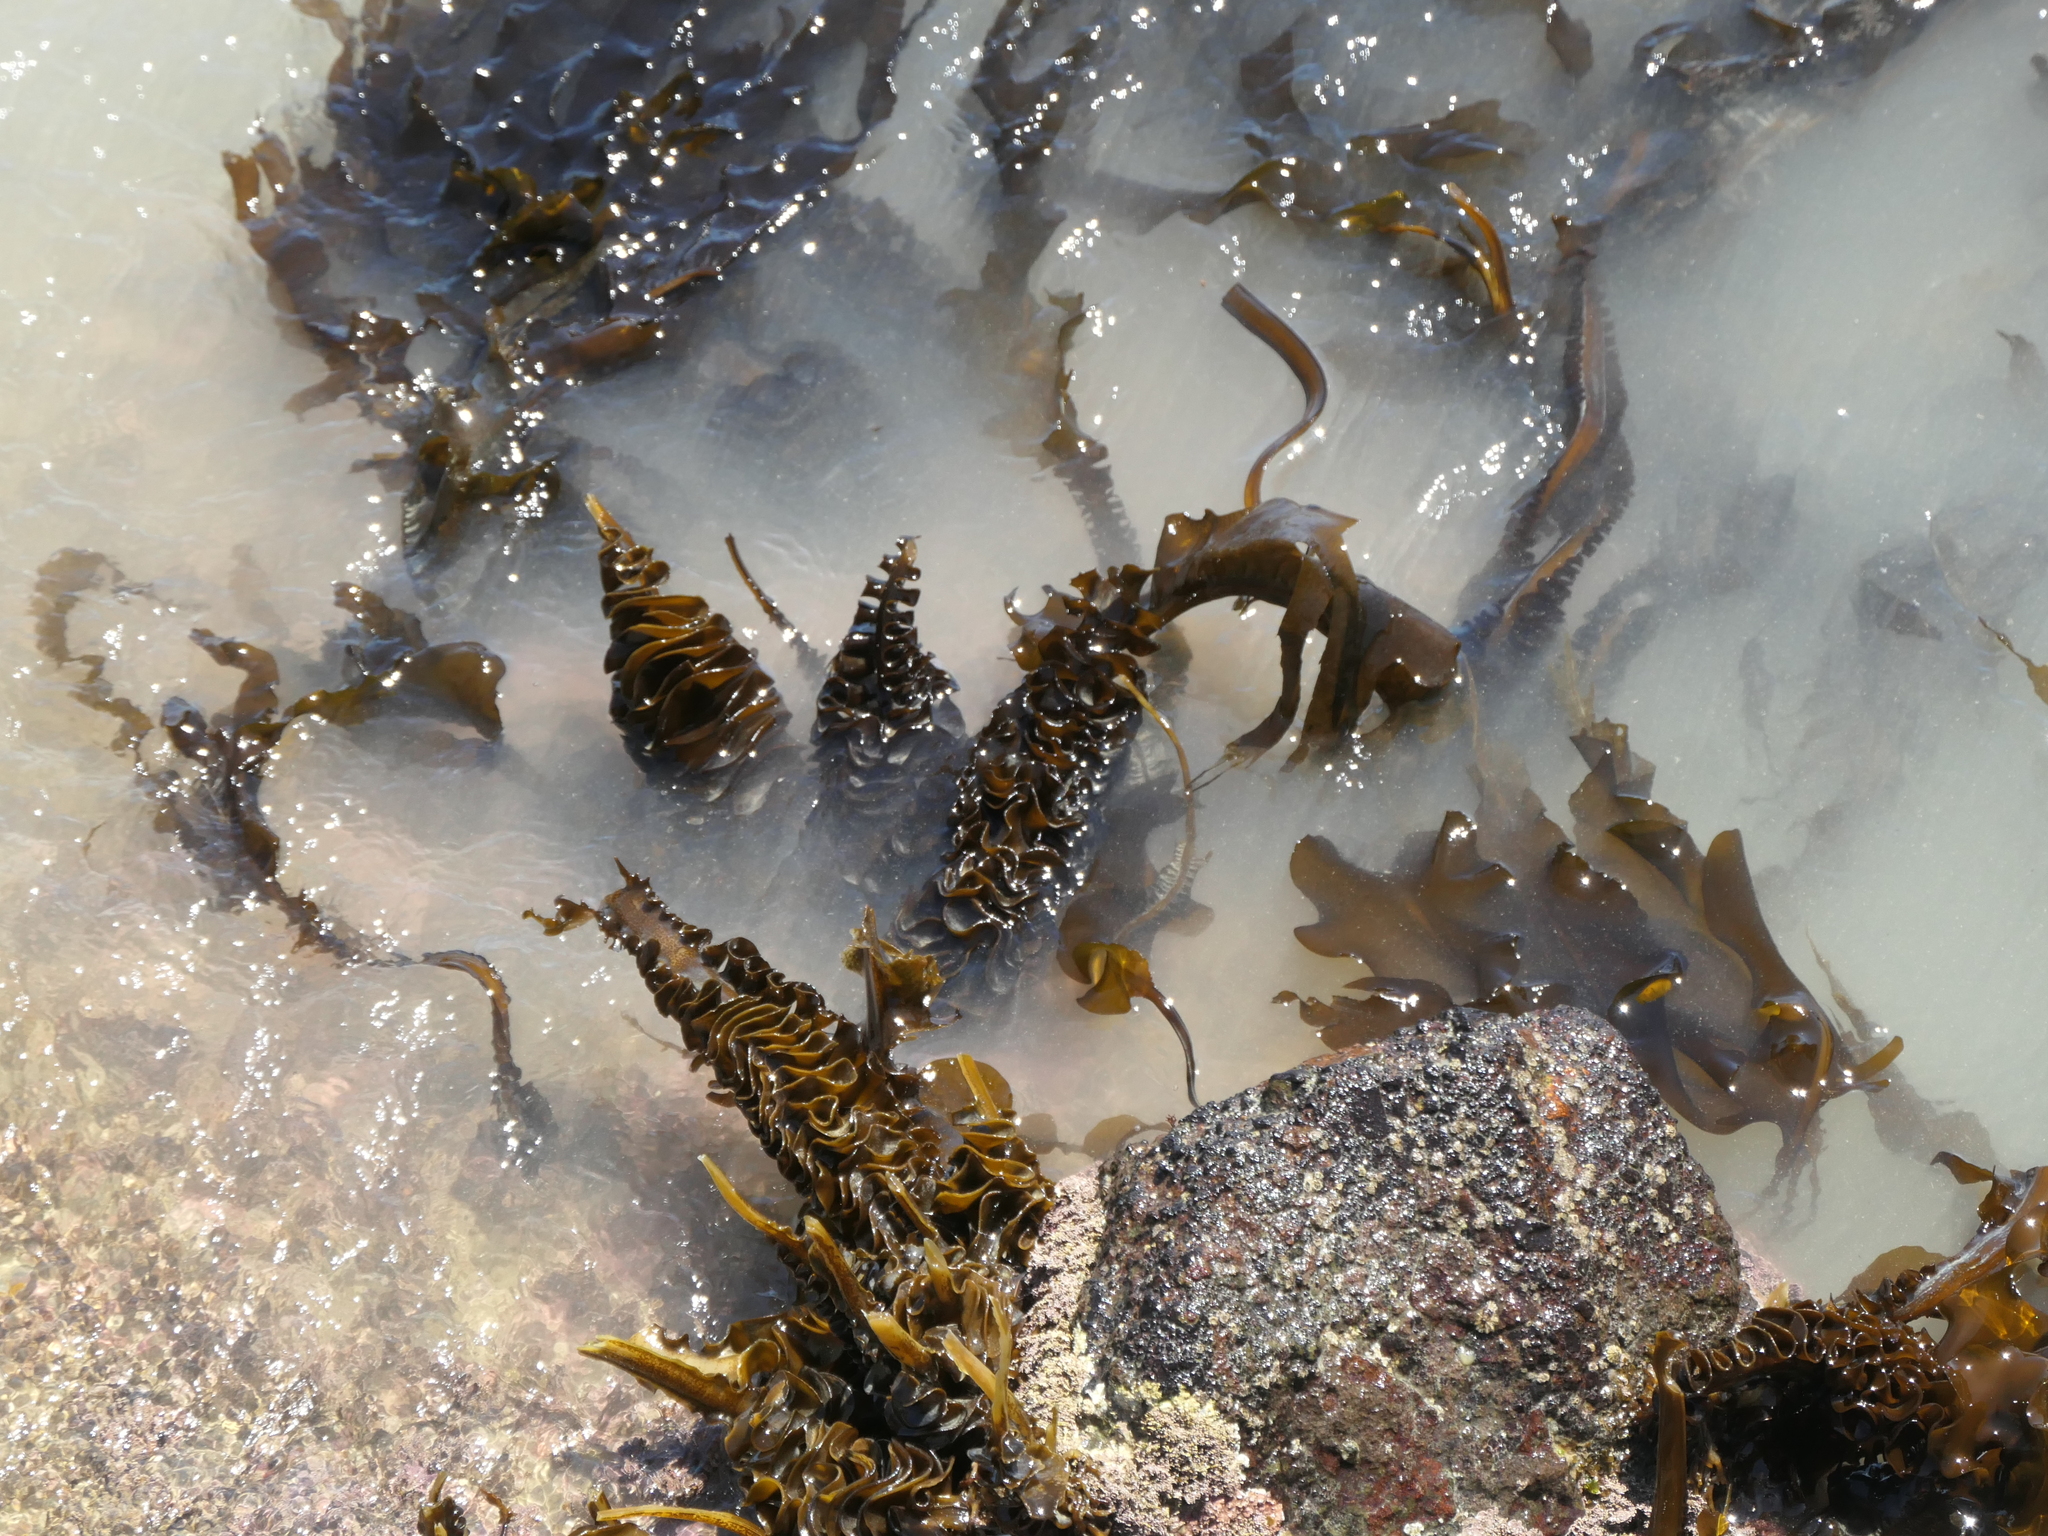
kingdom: Chromista
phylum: Ochrophyta
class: Phaeophyceae
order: Laminariales
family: Alariaceae
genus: Undaria
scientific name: Undaria pinnatifida
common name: Asian kelp
